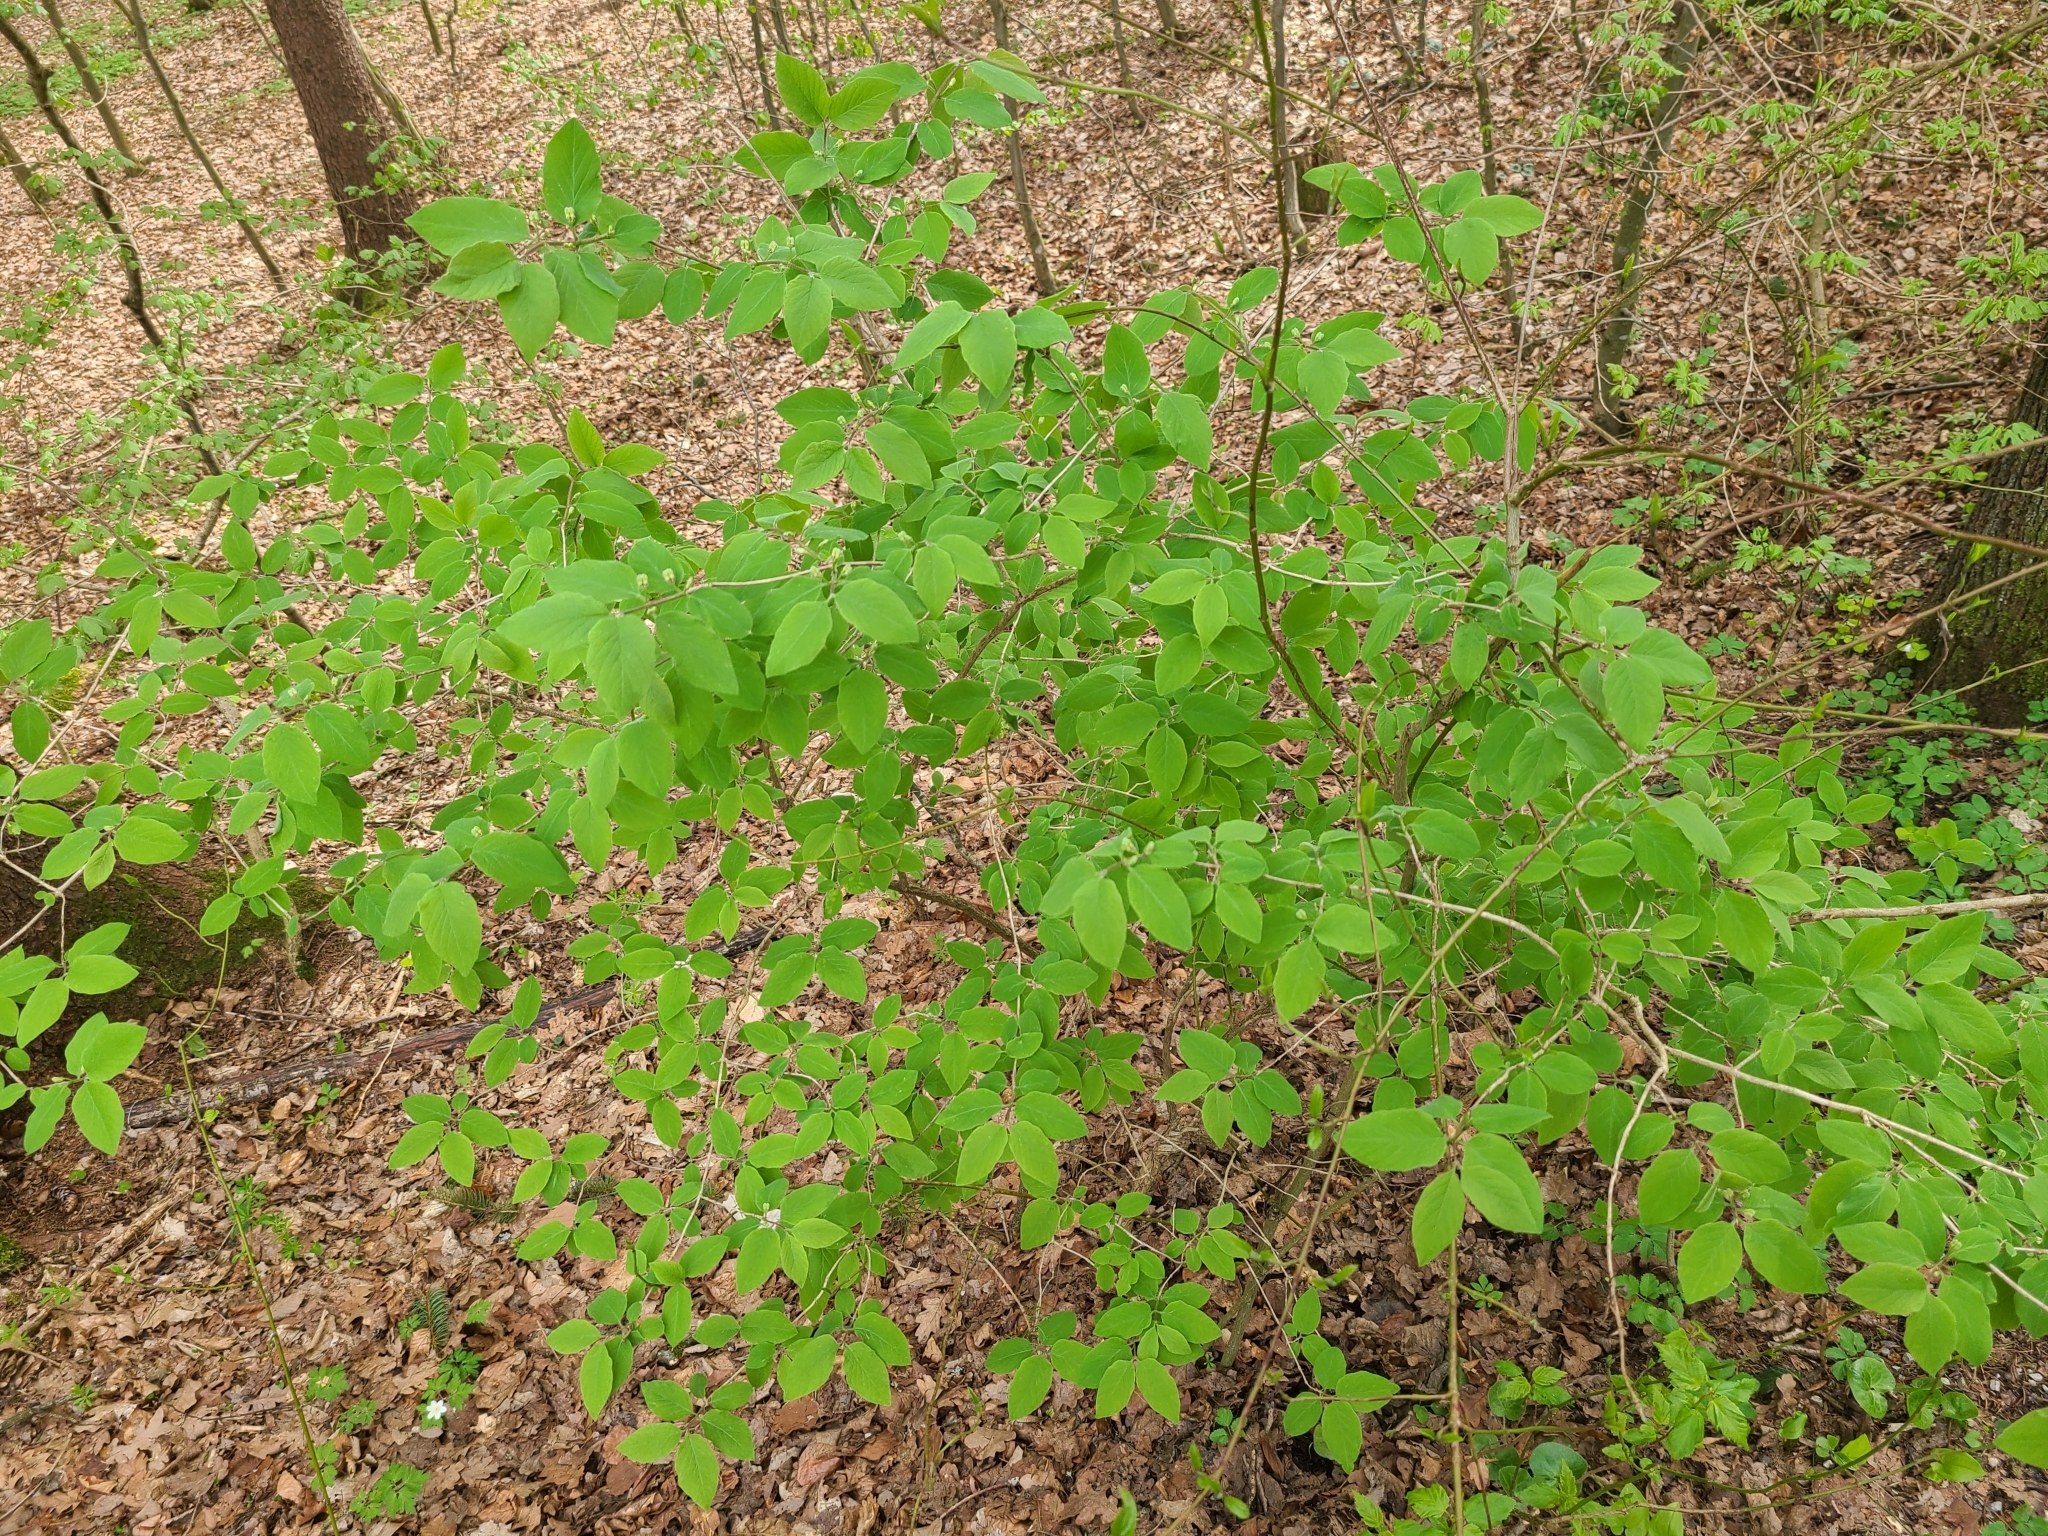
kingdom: Plantae
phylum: Tracheophyta
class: Magnoliopsida
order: Dipsacales
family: Caprifoliaceae
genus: Lonicera
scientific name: Lonicera xylosteum
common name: Fly honeysuckle
